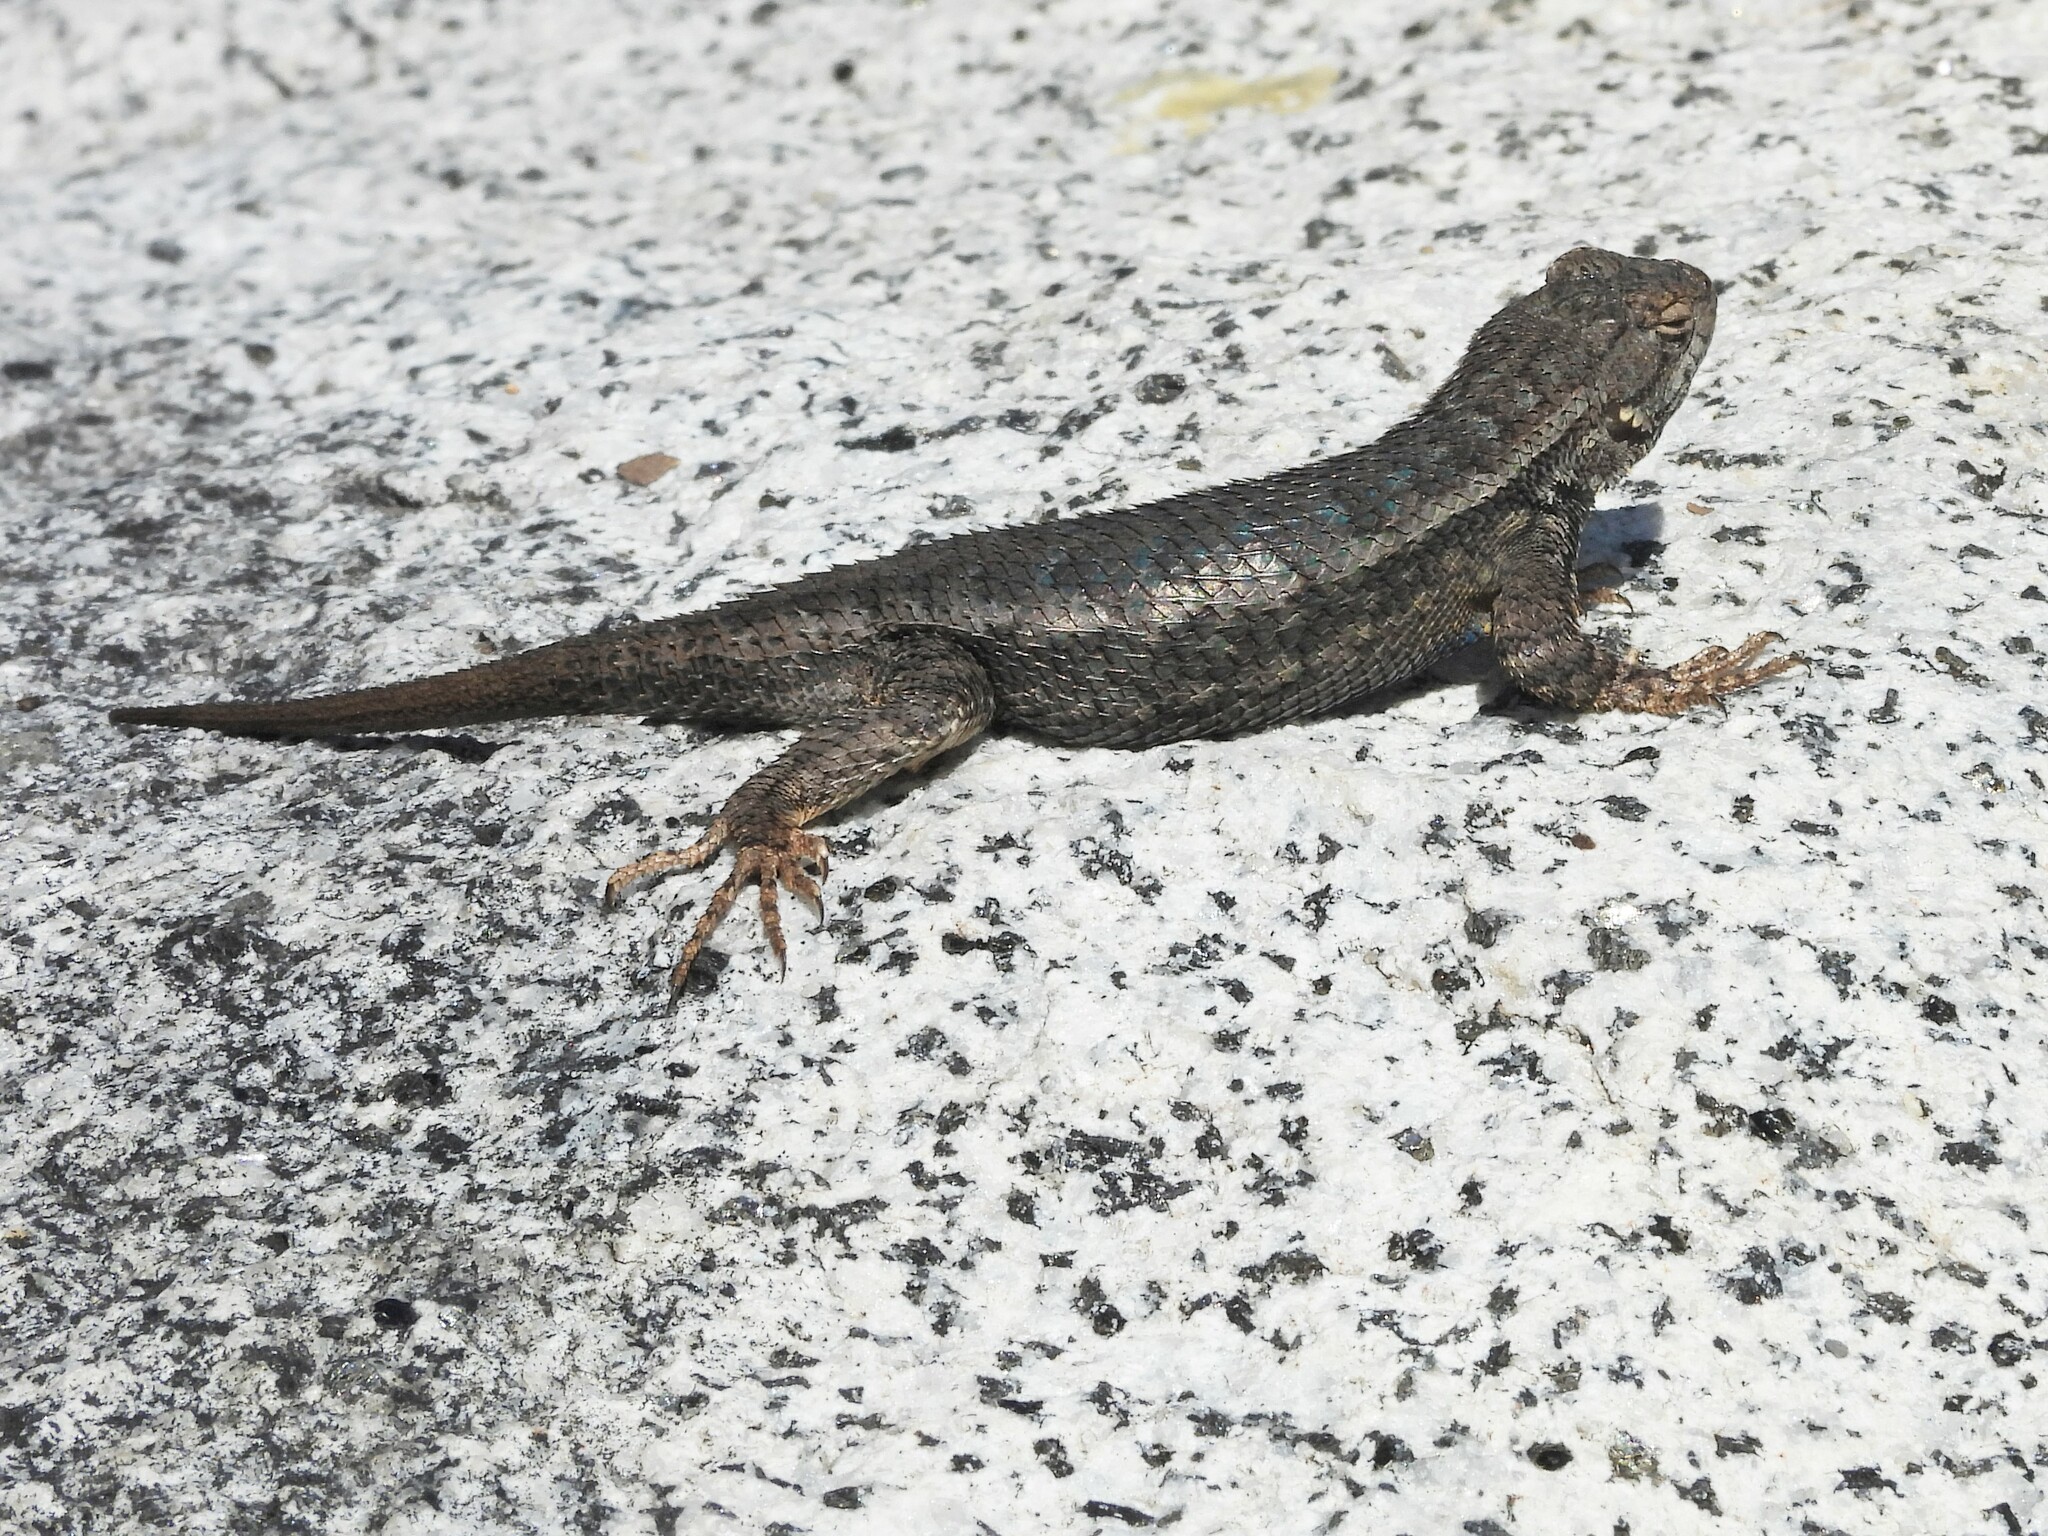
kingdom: Animalia
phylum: Chordata
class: Squamata
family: Phrynosomatidae
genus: Sceloporus
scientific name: Sceloporus occidentalis
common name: Western fence lizard
